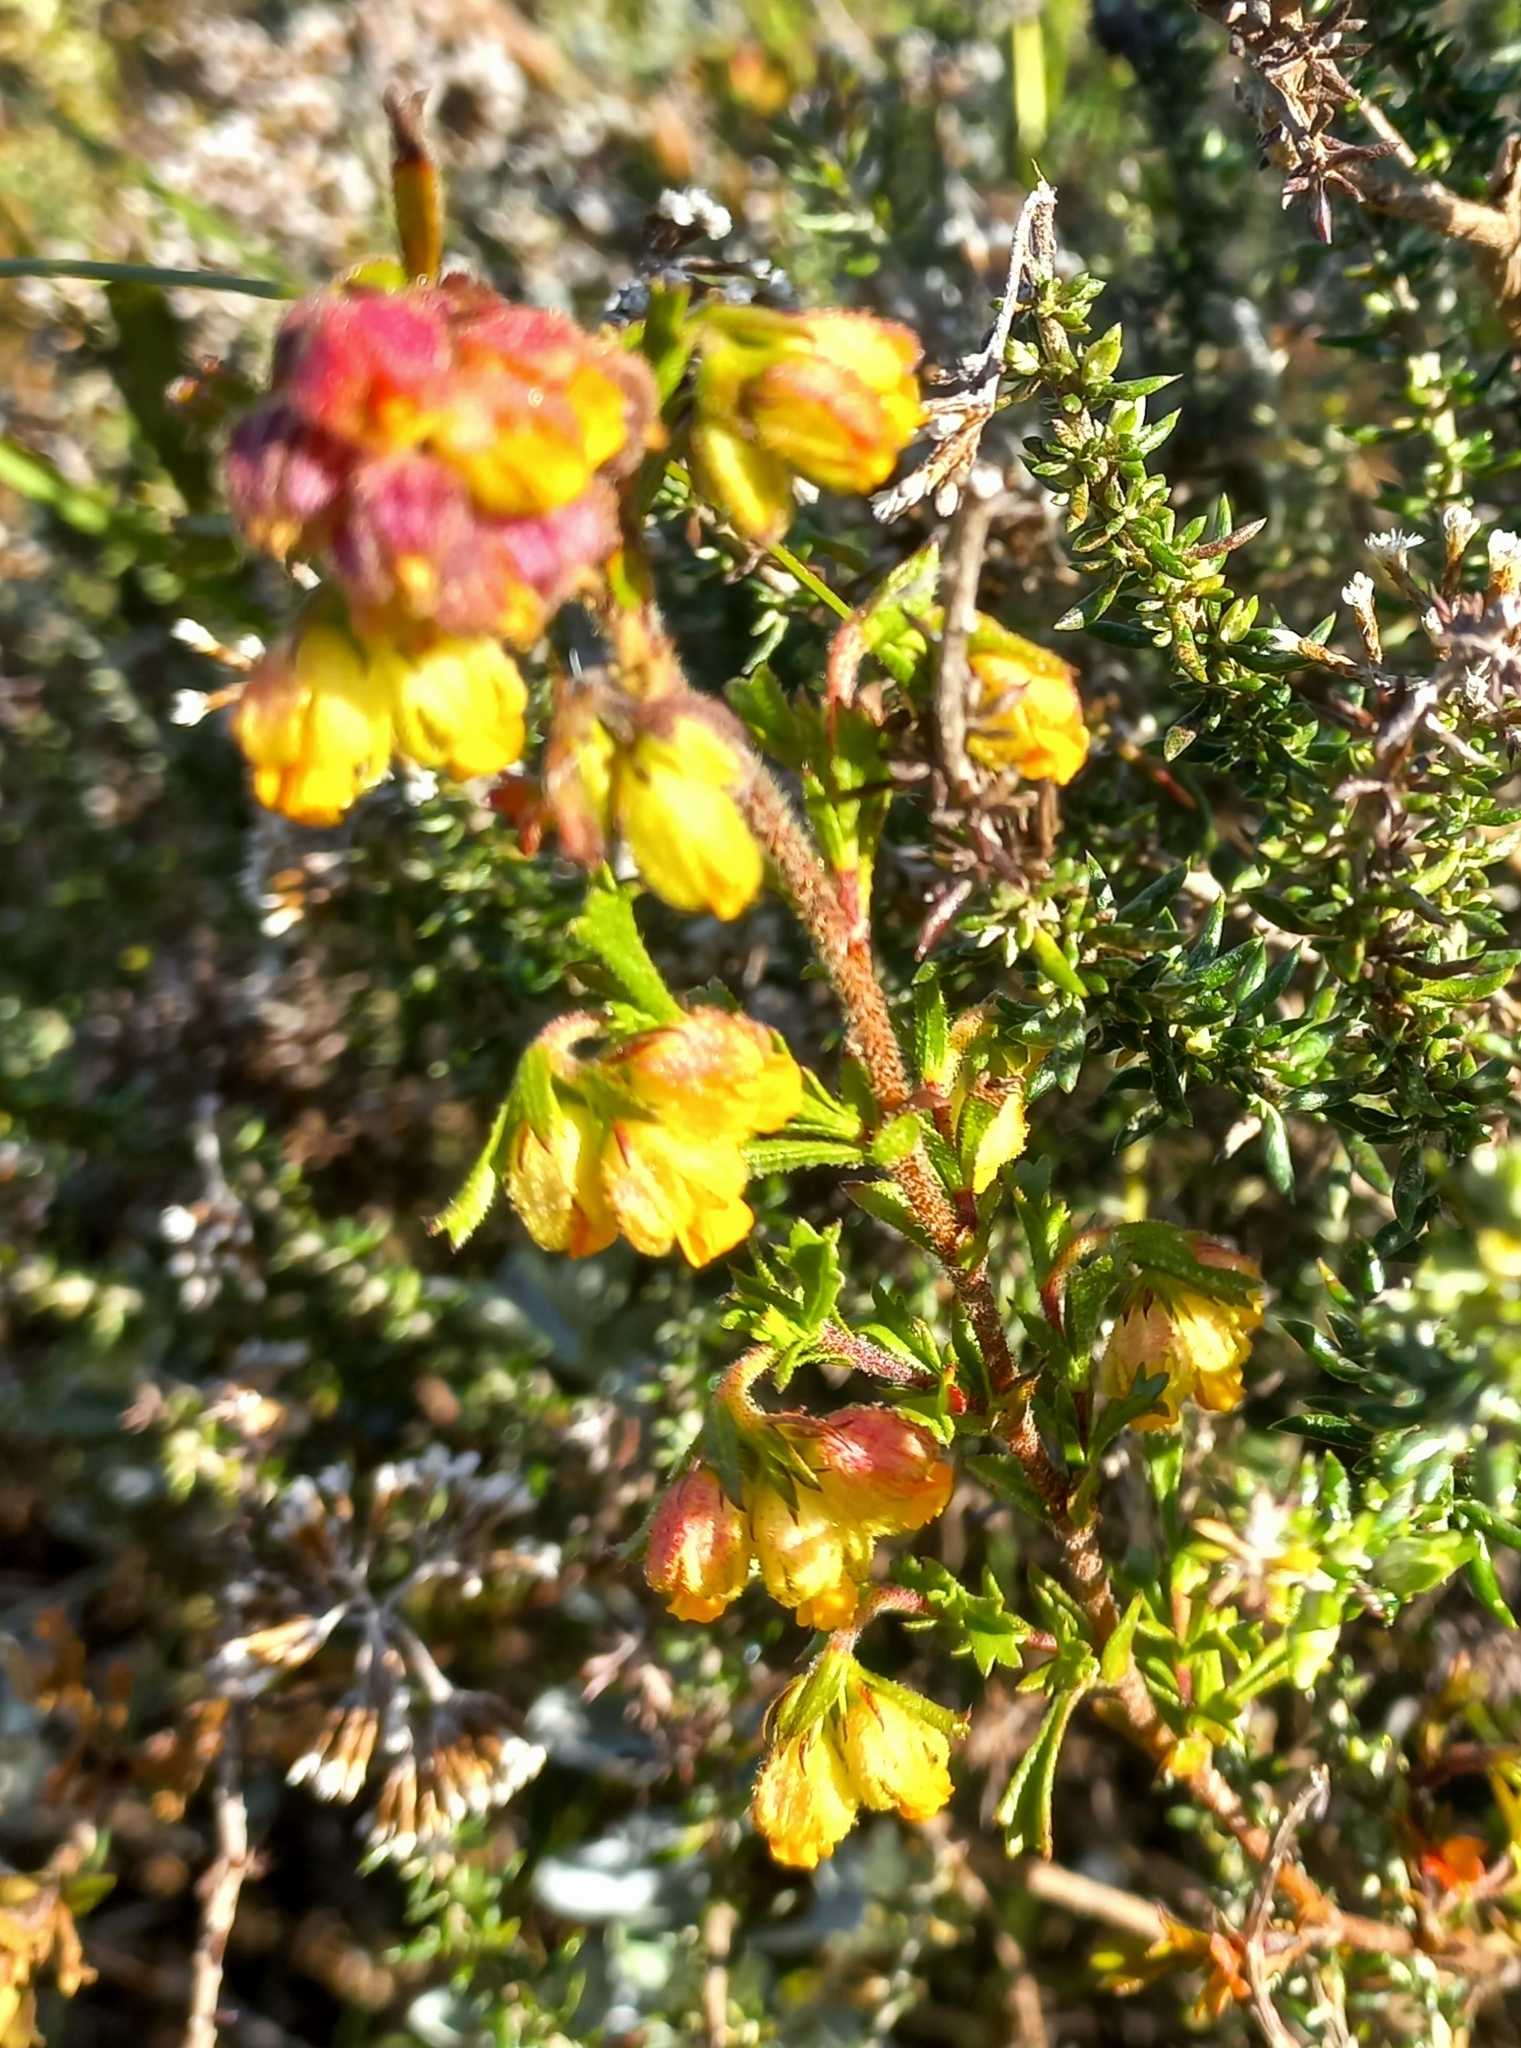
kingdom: Plantae
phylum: Tracheophyta
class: Magnoliopsida
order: Malvales
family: Malvaceae
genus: Hermannia
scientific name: Hermannia rudis
